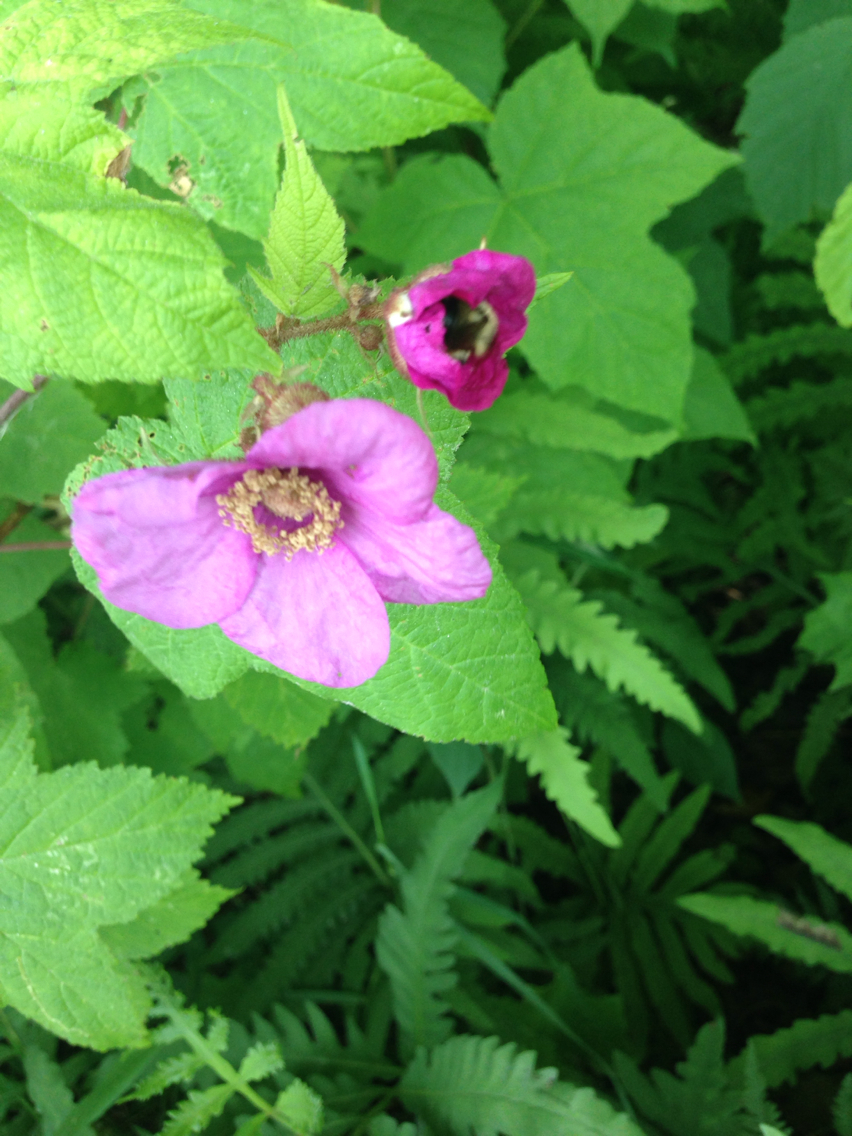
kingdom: Plantae
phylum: Tracheophyta
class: Magnoliopsida
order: Rosales
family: Rosaceae
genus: Rubus
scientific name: Rubus odoratus
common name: Purple-flowered raspberry
